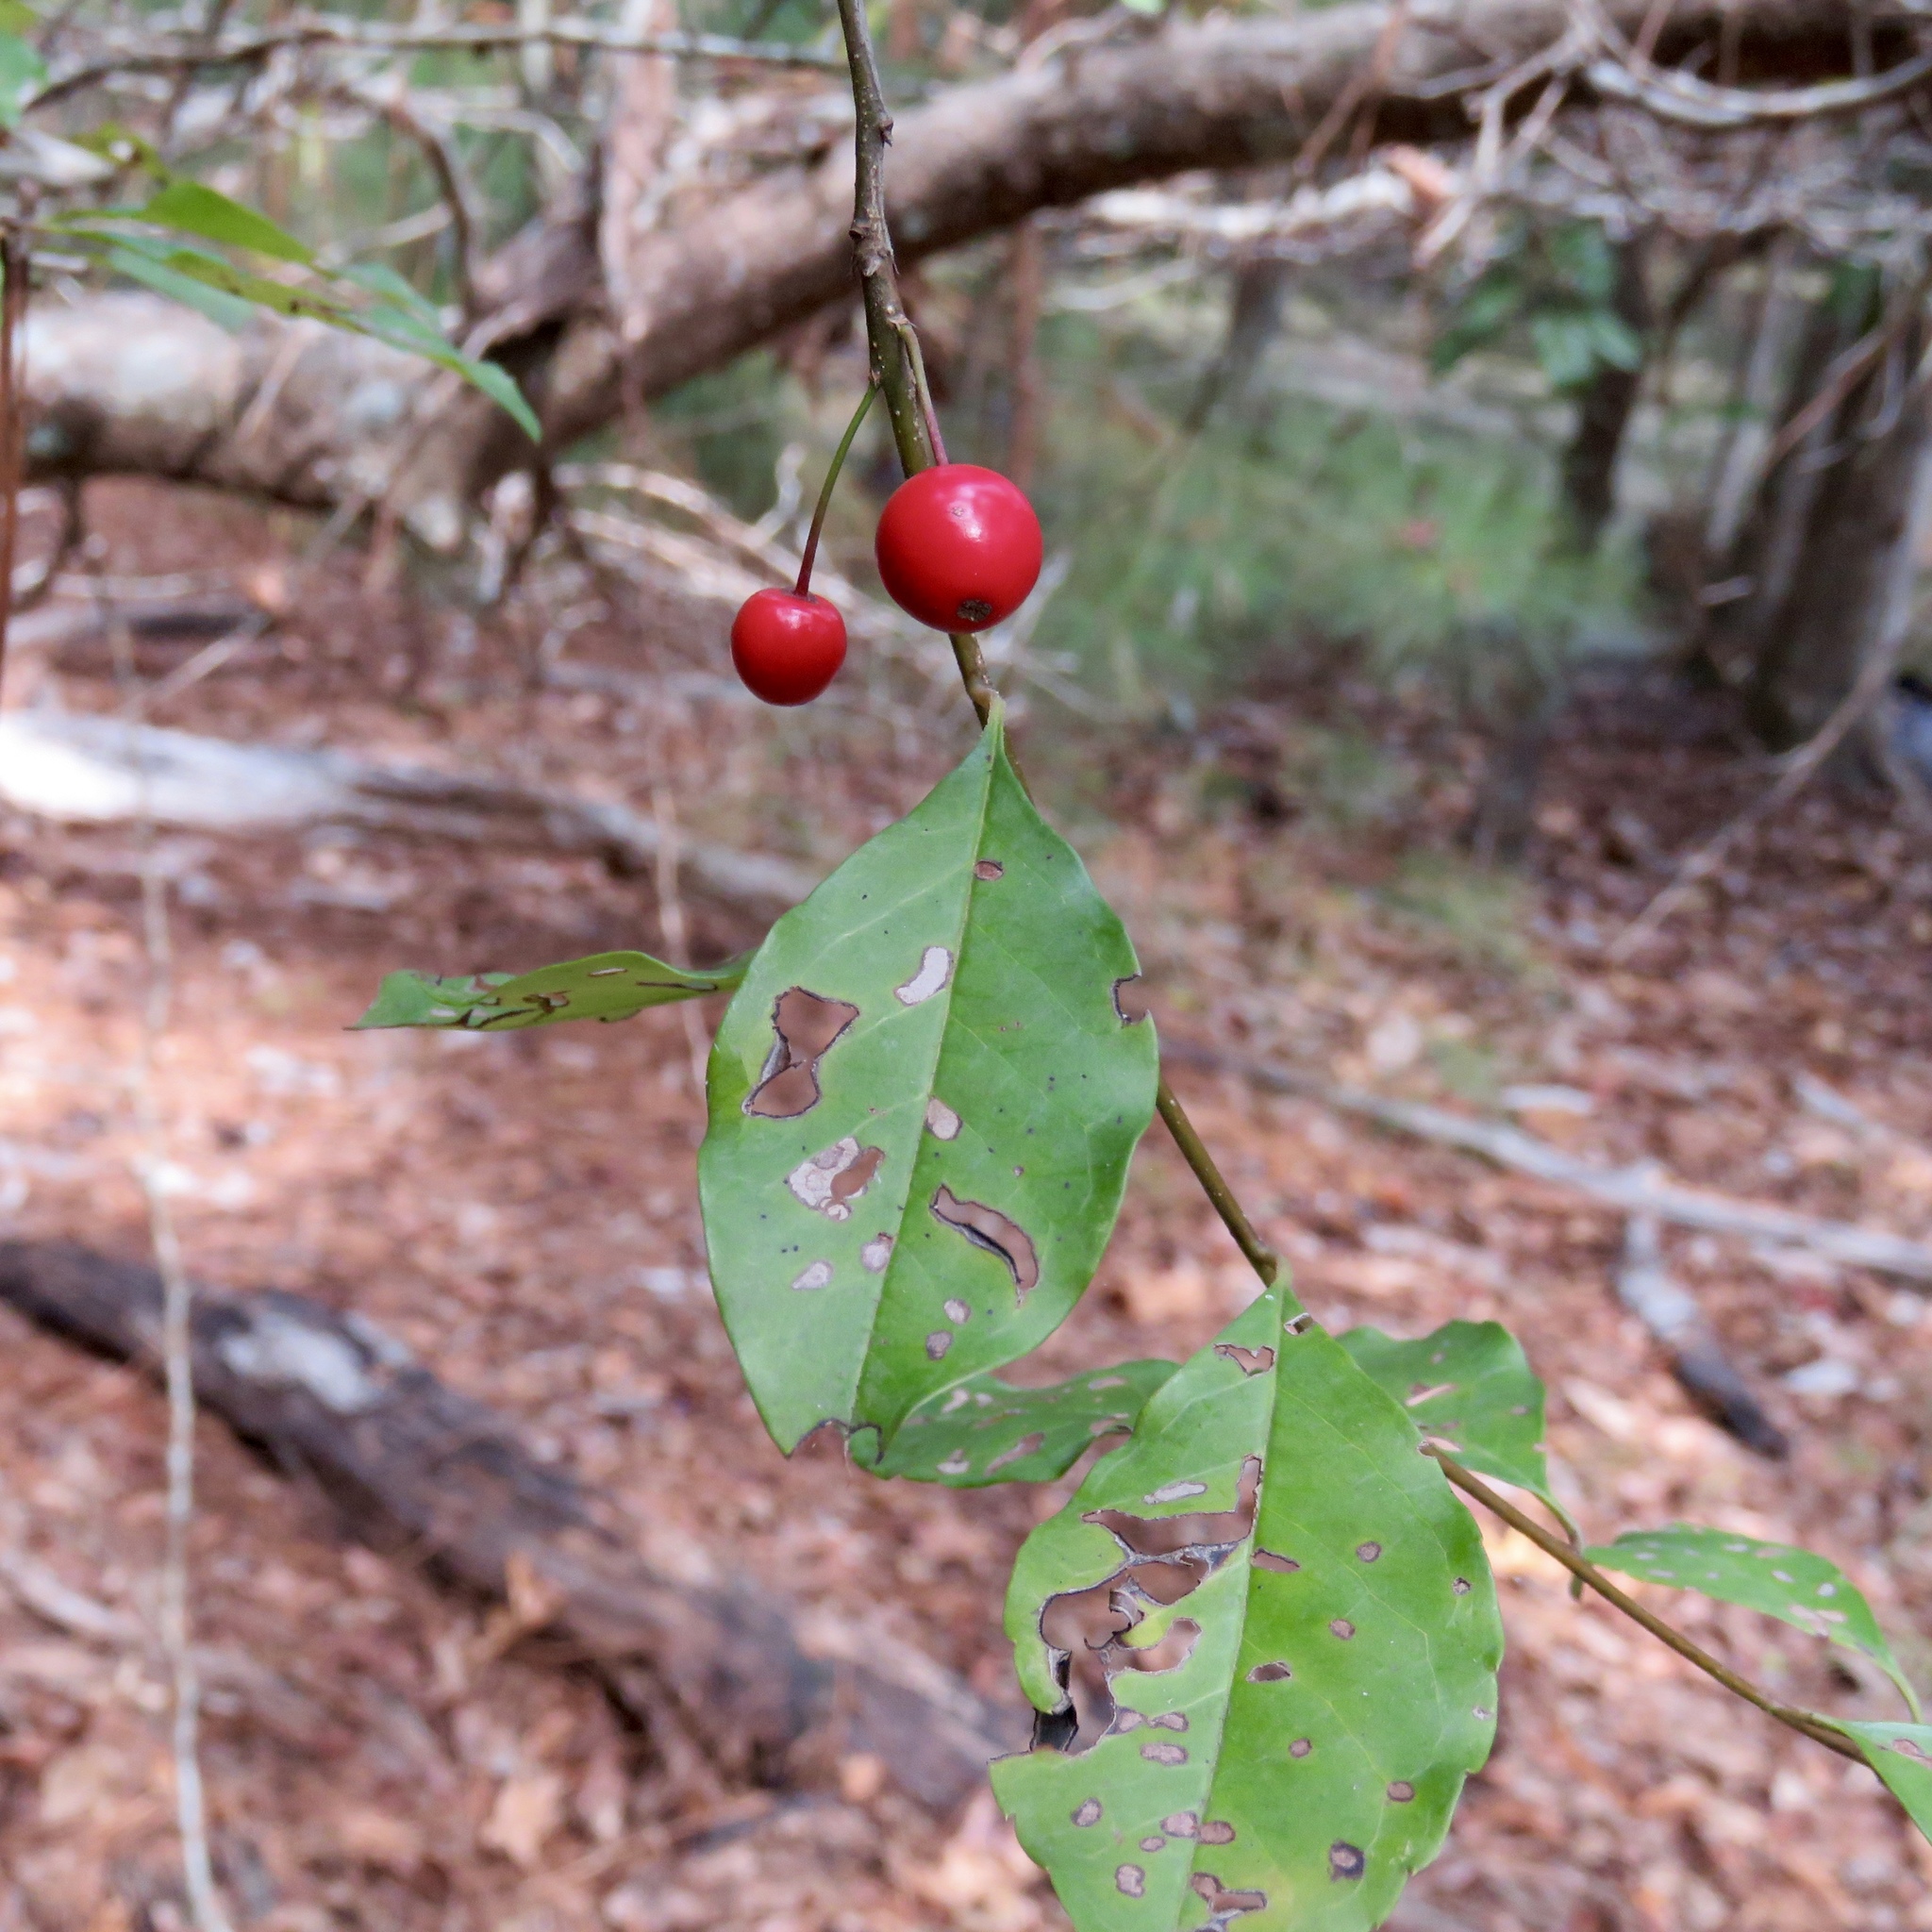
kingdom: Plantae
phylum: Tracheophyta
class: Magnoliopsida
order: Aquifoliales
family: Aquifoliaceae
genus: Ilex
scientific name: Ilex longipes
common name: Georgia holly
